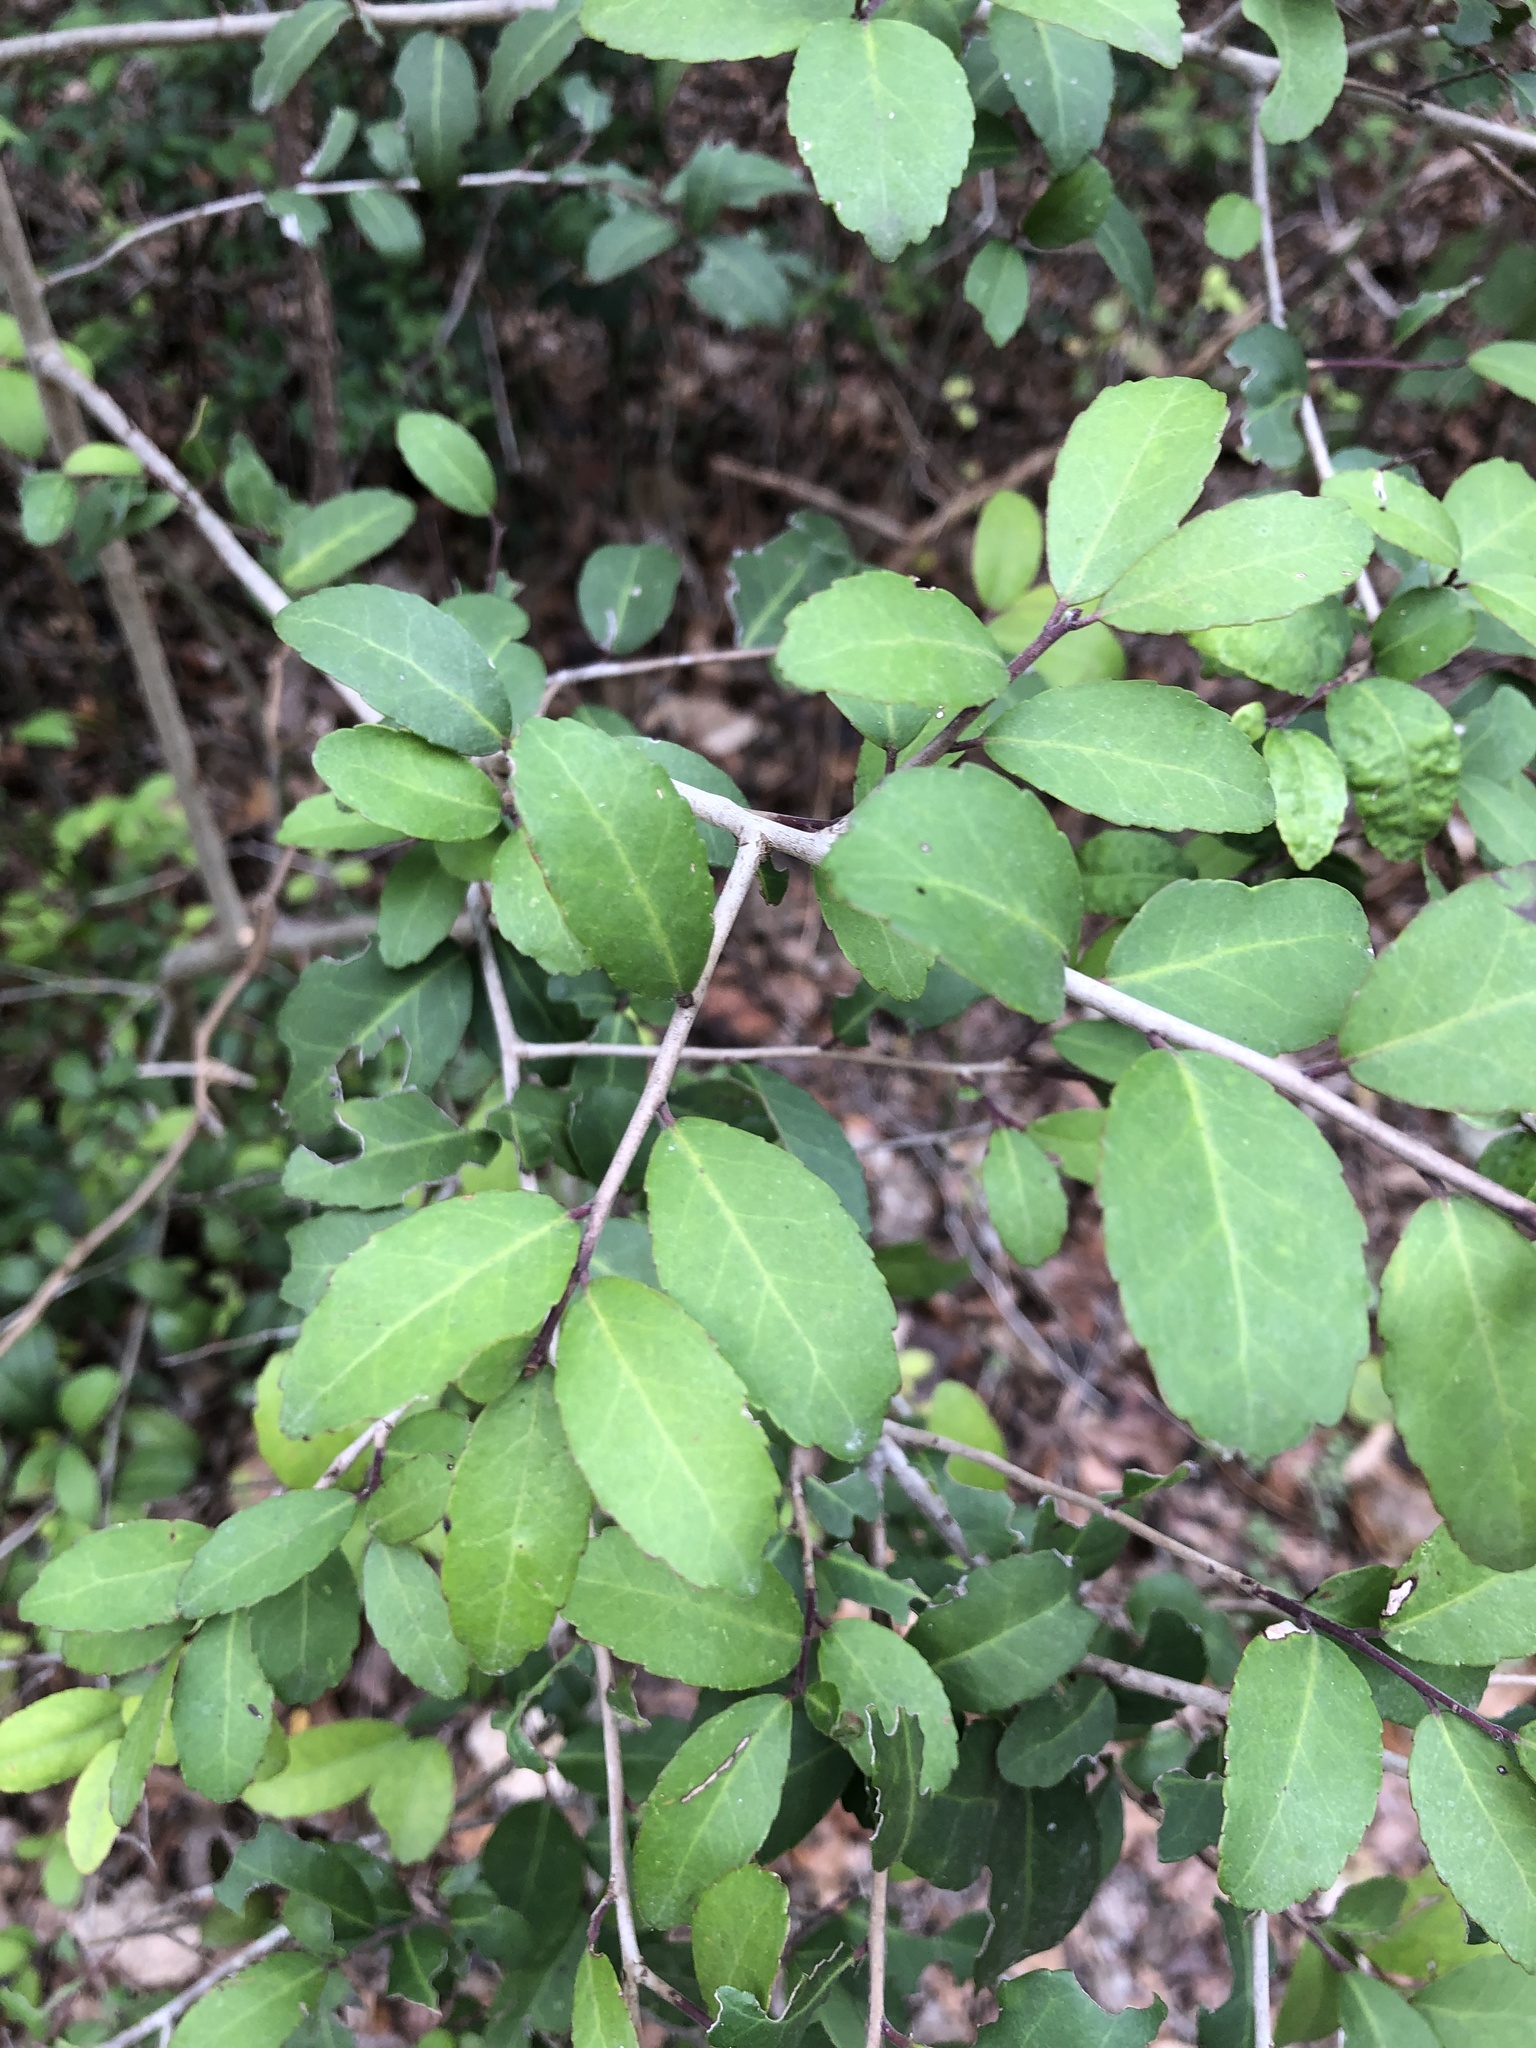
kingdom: Plantae
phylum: Tracheophyta
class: Magnoliopsida
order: Aquifoliales
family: Aquifoliaceae
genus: Ilex
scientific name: Ilex vomitoria
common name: Yaupon holly
